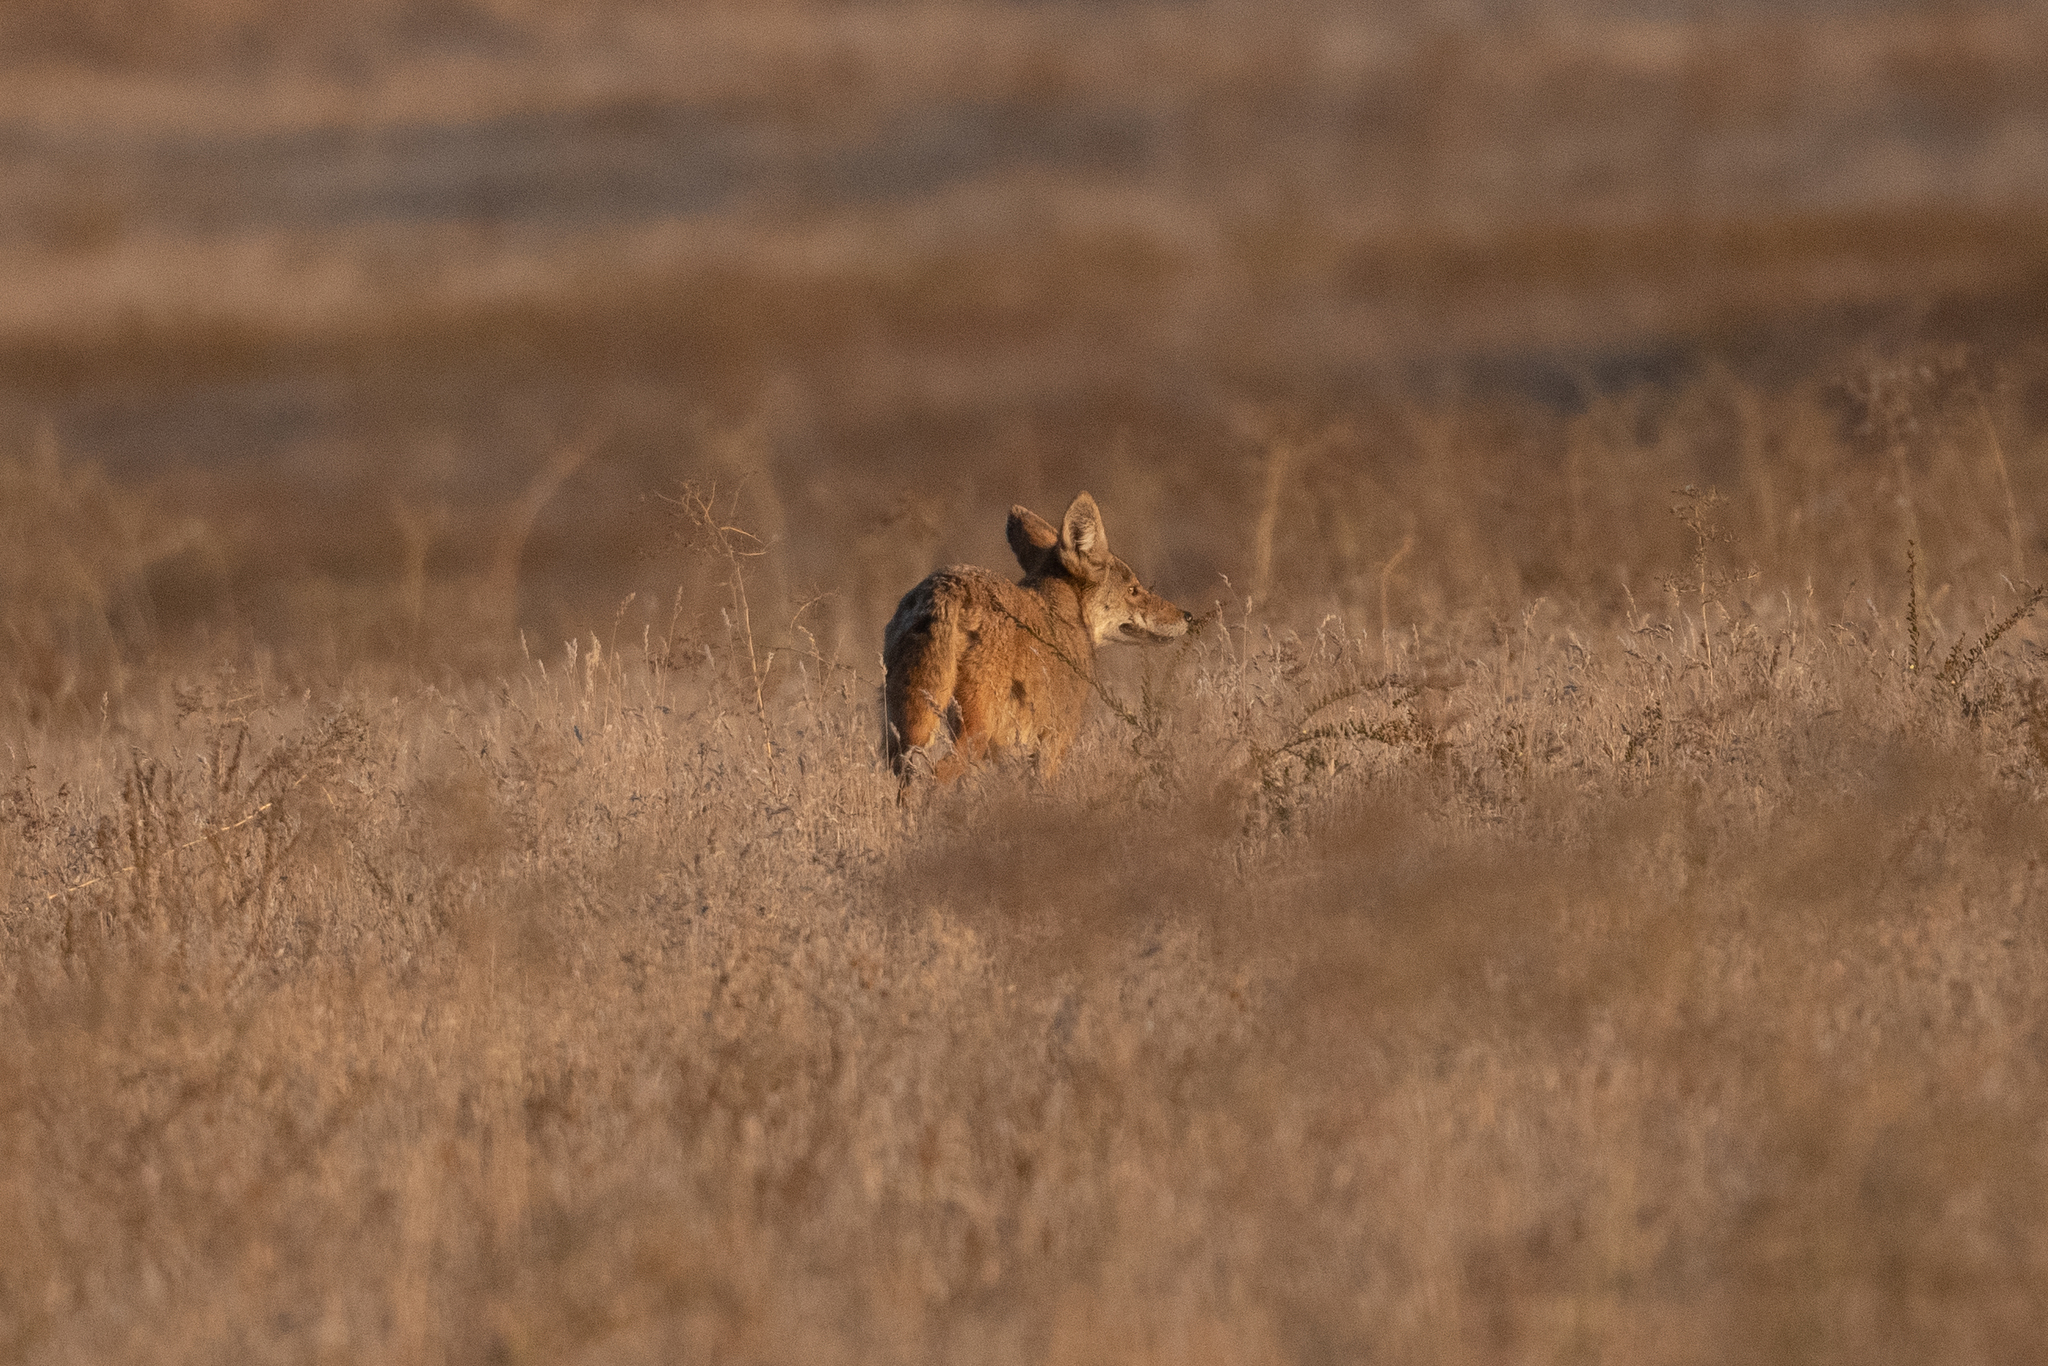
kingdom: Animalia
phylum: Chordata
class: Mammalia
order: Carnivora
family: Canidae
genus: Canis
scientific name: Canis latrans
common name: Coyote
